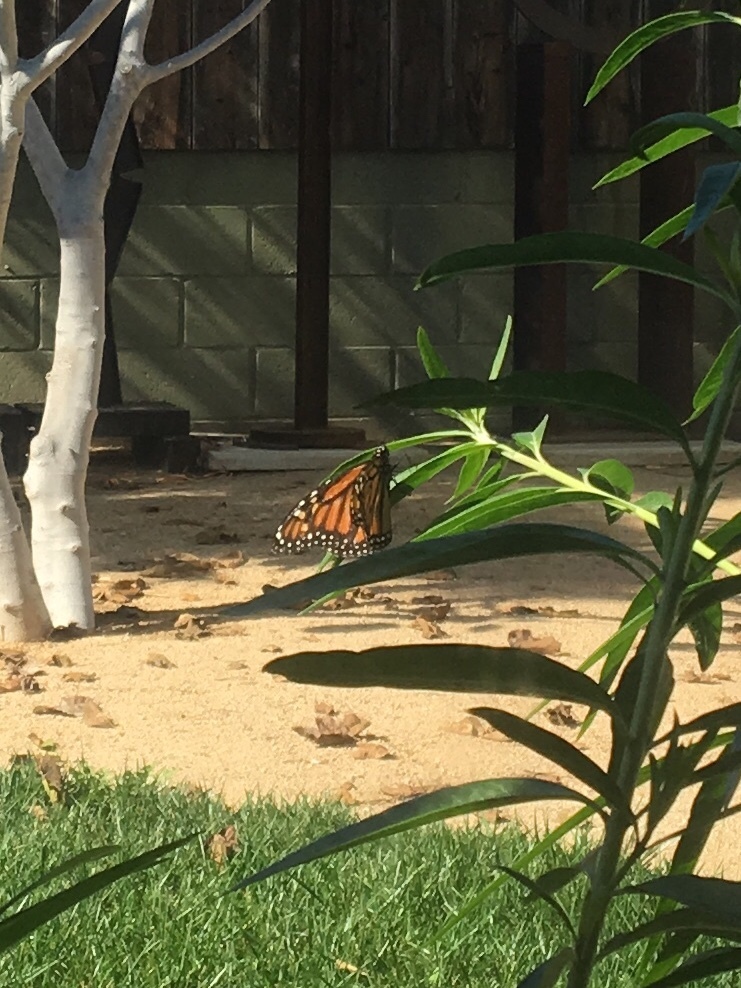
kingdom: Animalia
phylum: Arthropoda
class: Insecta
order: Lepidoptera
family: Nymphalidae
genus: Danaus
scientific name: Danaus plexippus
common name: Monarch
